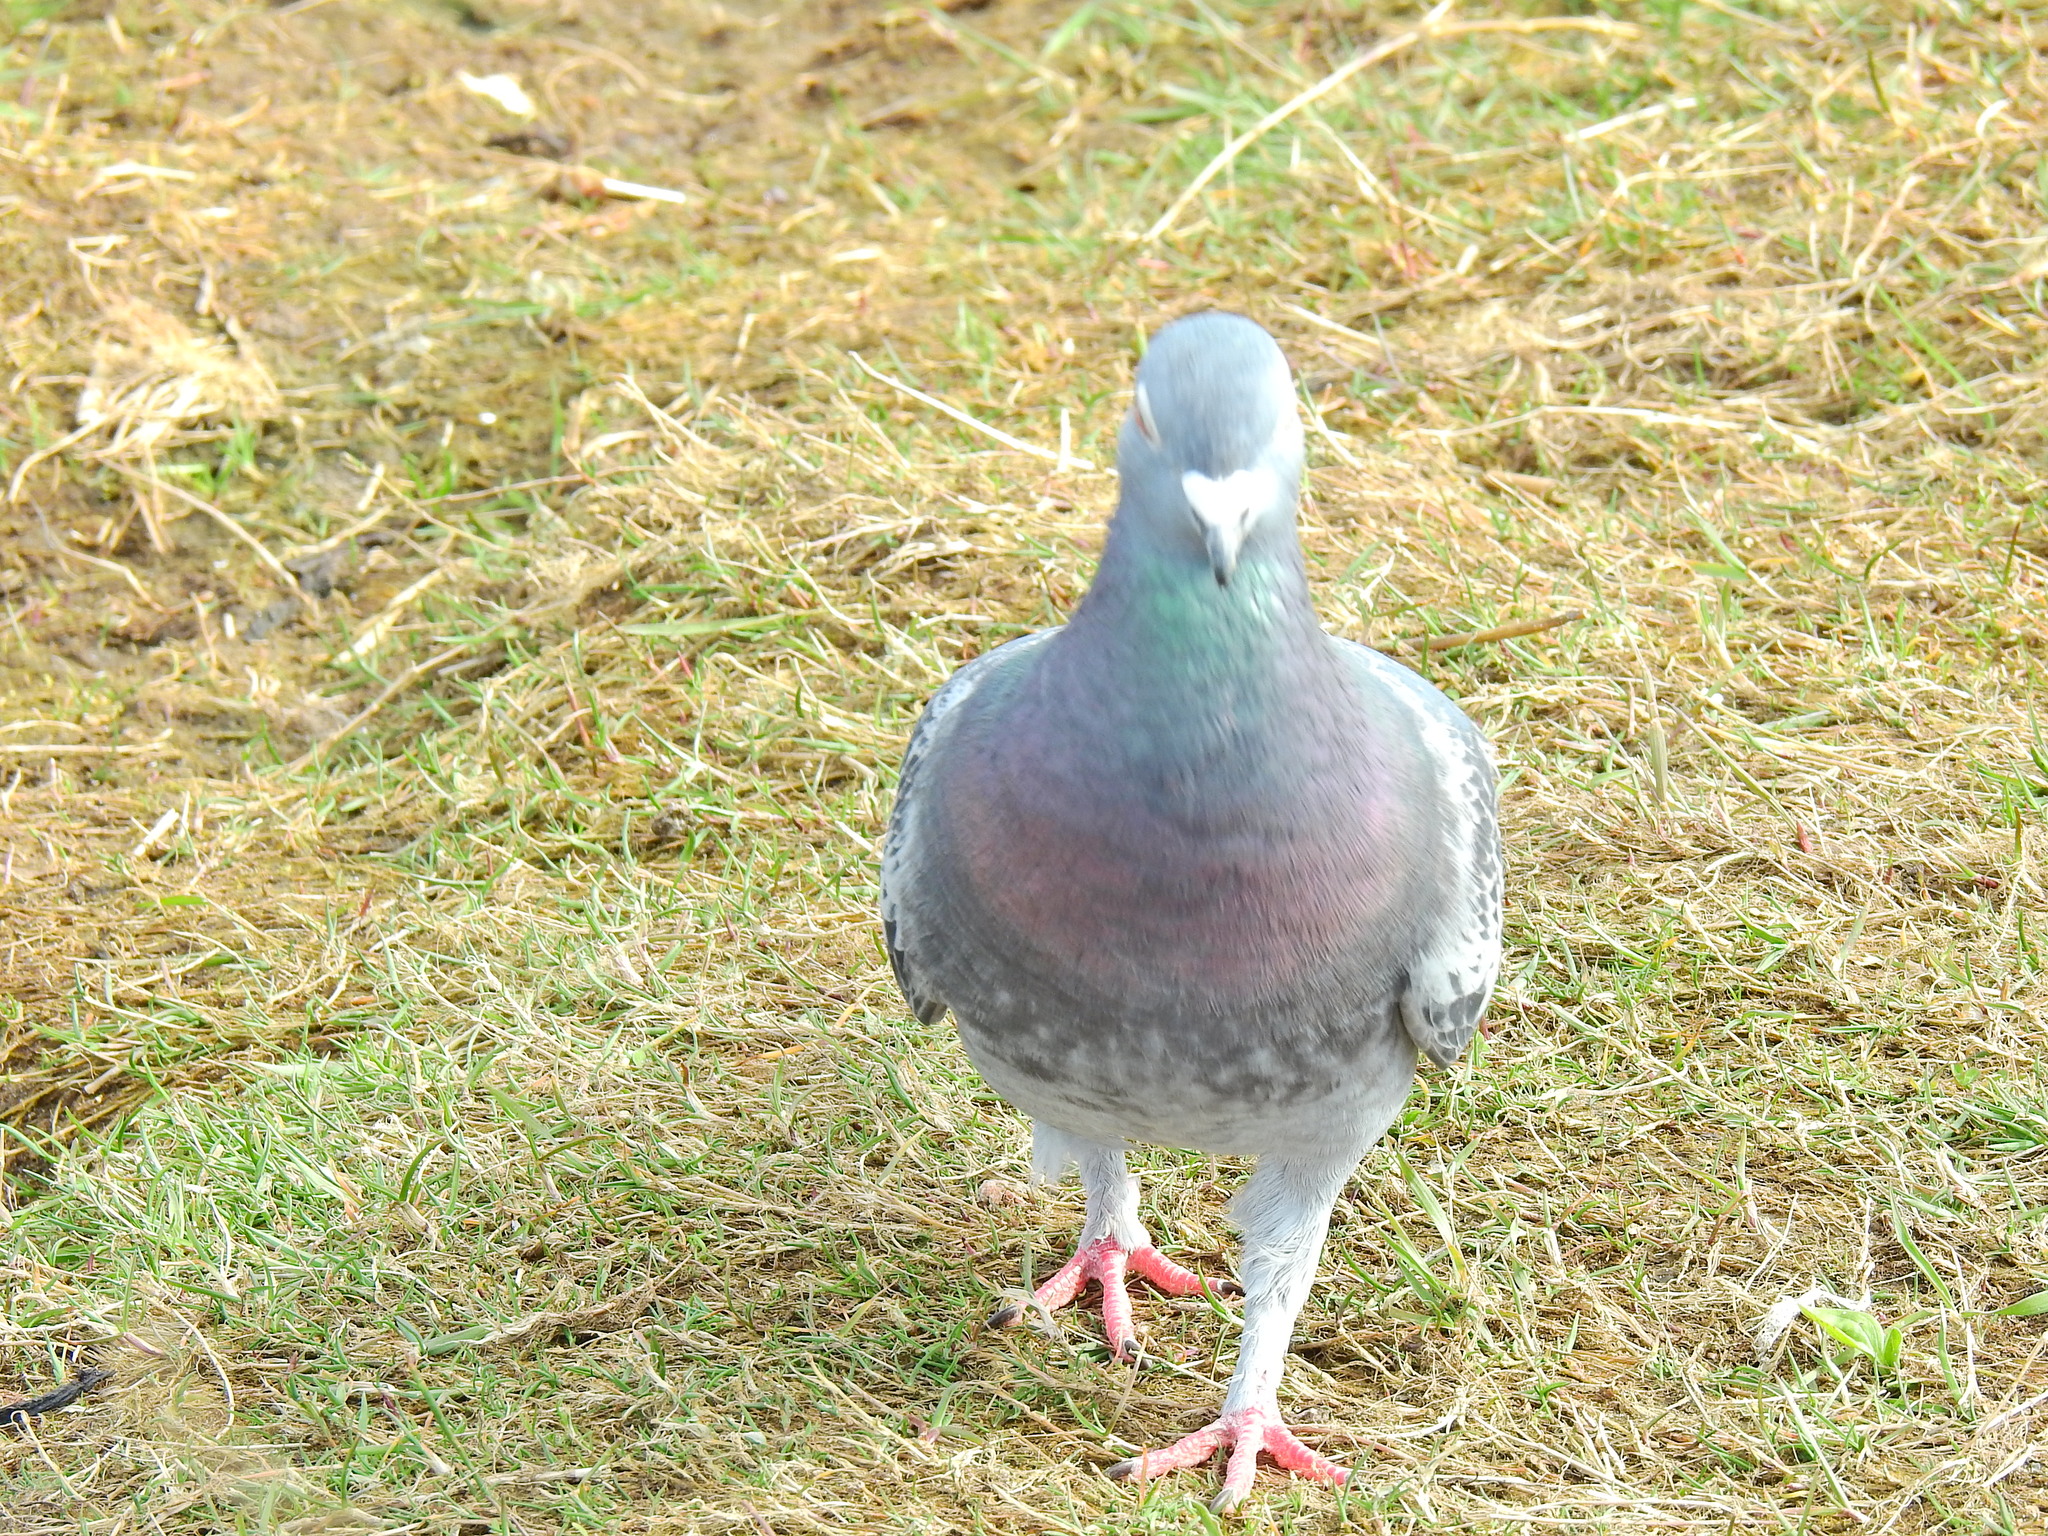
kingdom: Animalia
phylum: Chordata
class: Aves
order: Columbiformes
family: Columbidae
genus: Columba
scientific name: Columba livia
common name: Rock pigeon
